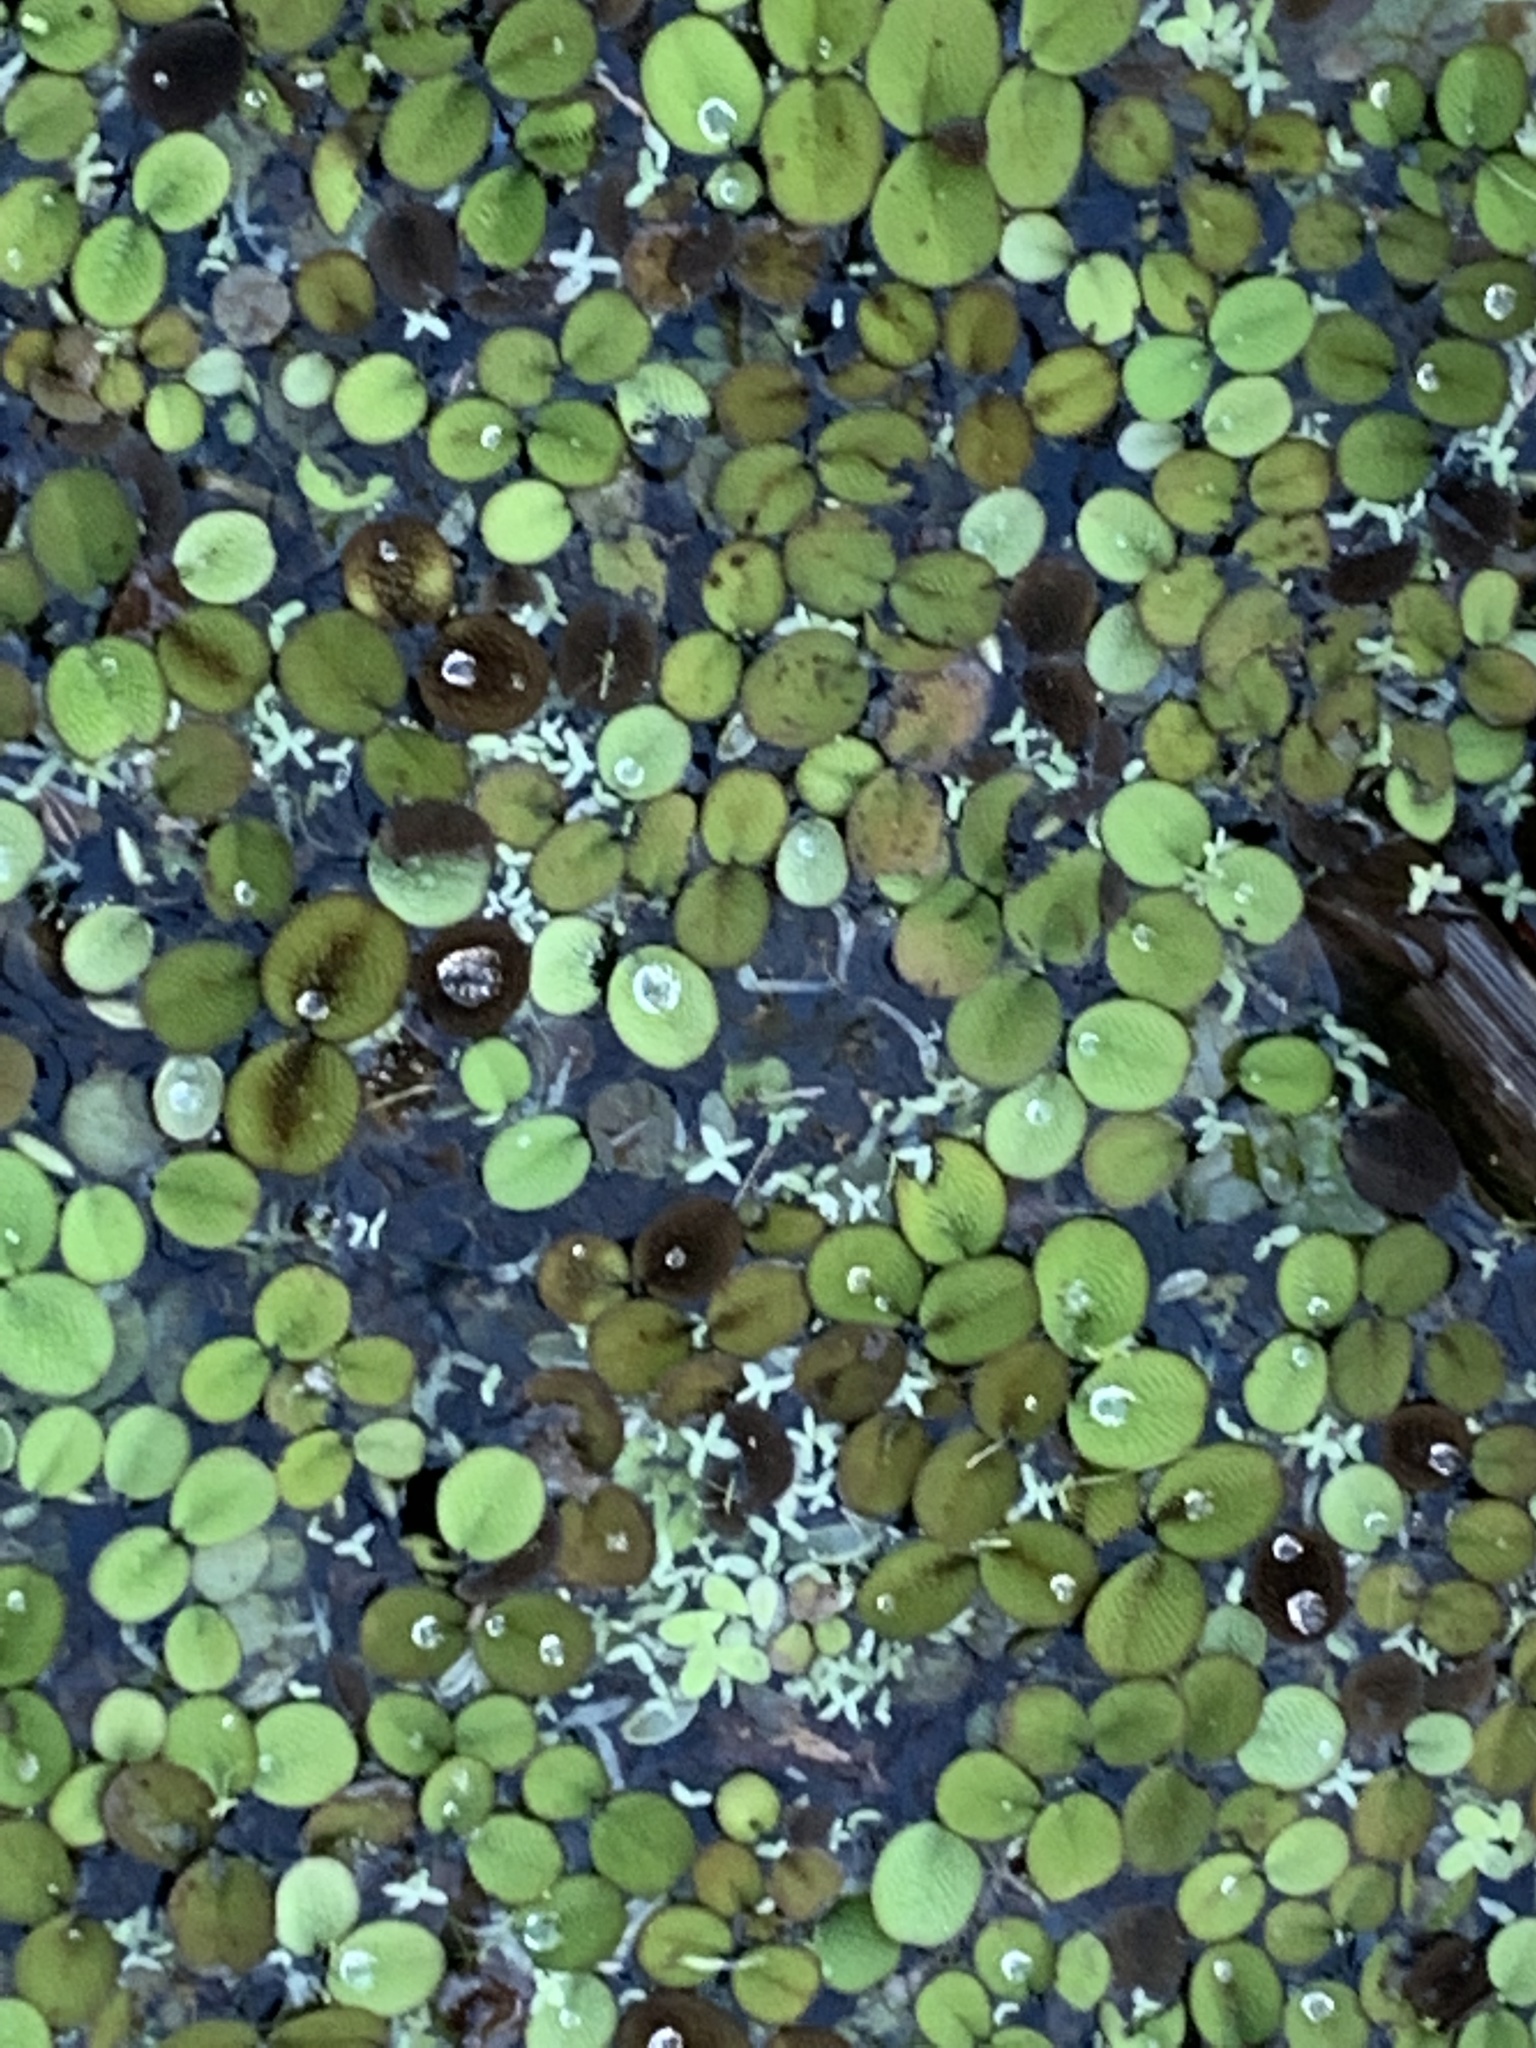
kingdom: Plantae
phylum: Tracheophyta
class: Polypodiopsida
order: Salviniales
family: Salviniaceae
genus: Salvinia
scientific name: Salvinia minima
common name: Water spangles
